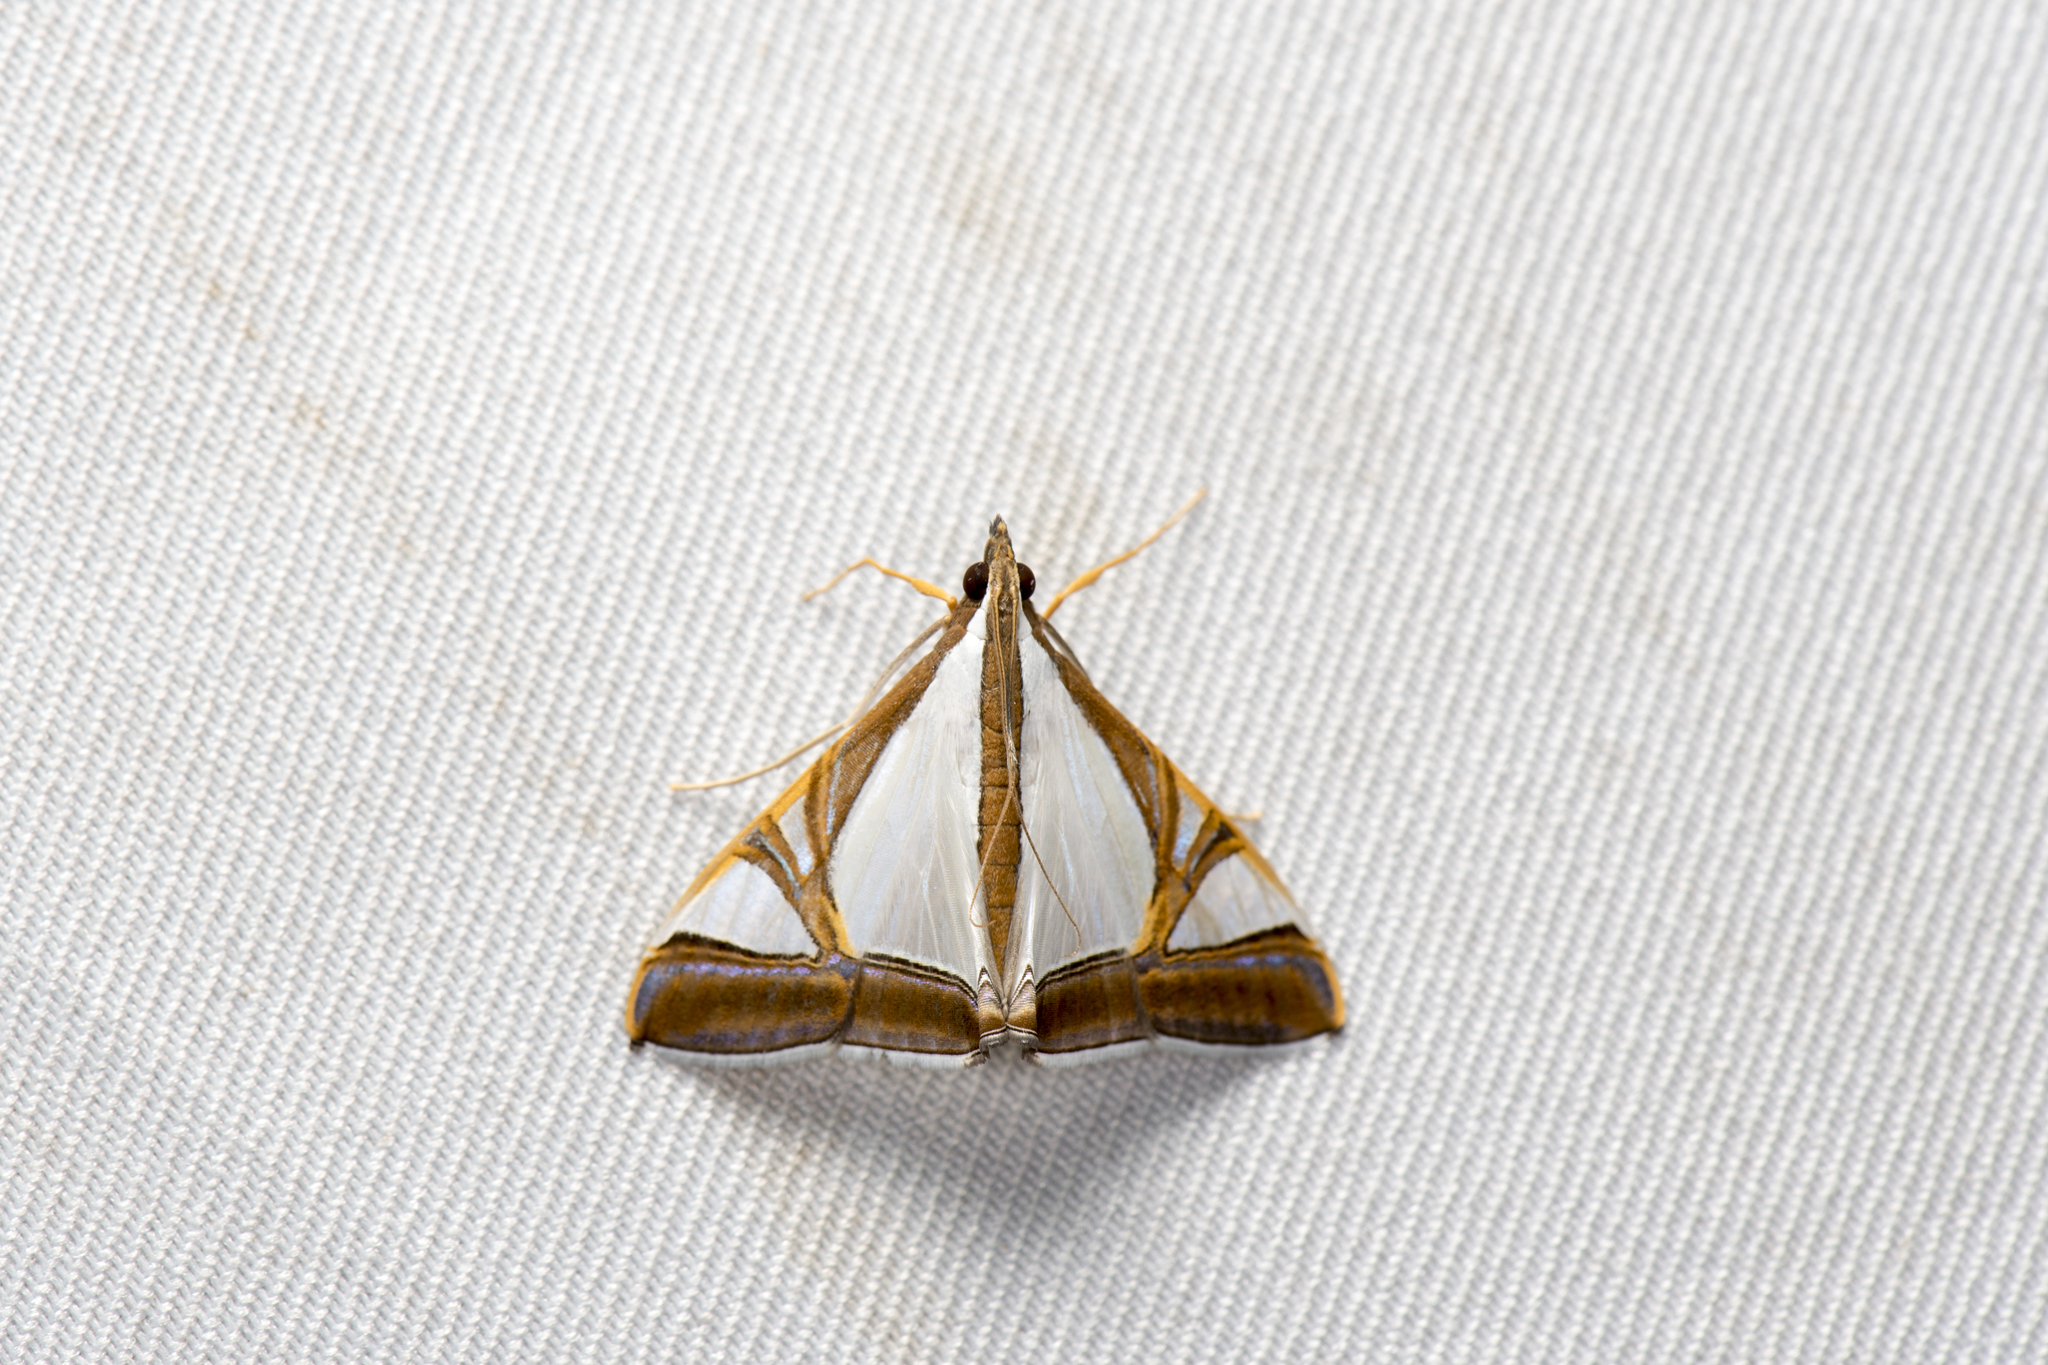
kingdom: Animalia
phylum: Arthropoda
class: Insecta
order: Lepidoptera
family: Crambidae
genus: Agrioglypta
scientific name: Agrioglypta eurytusalis
